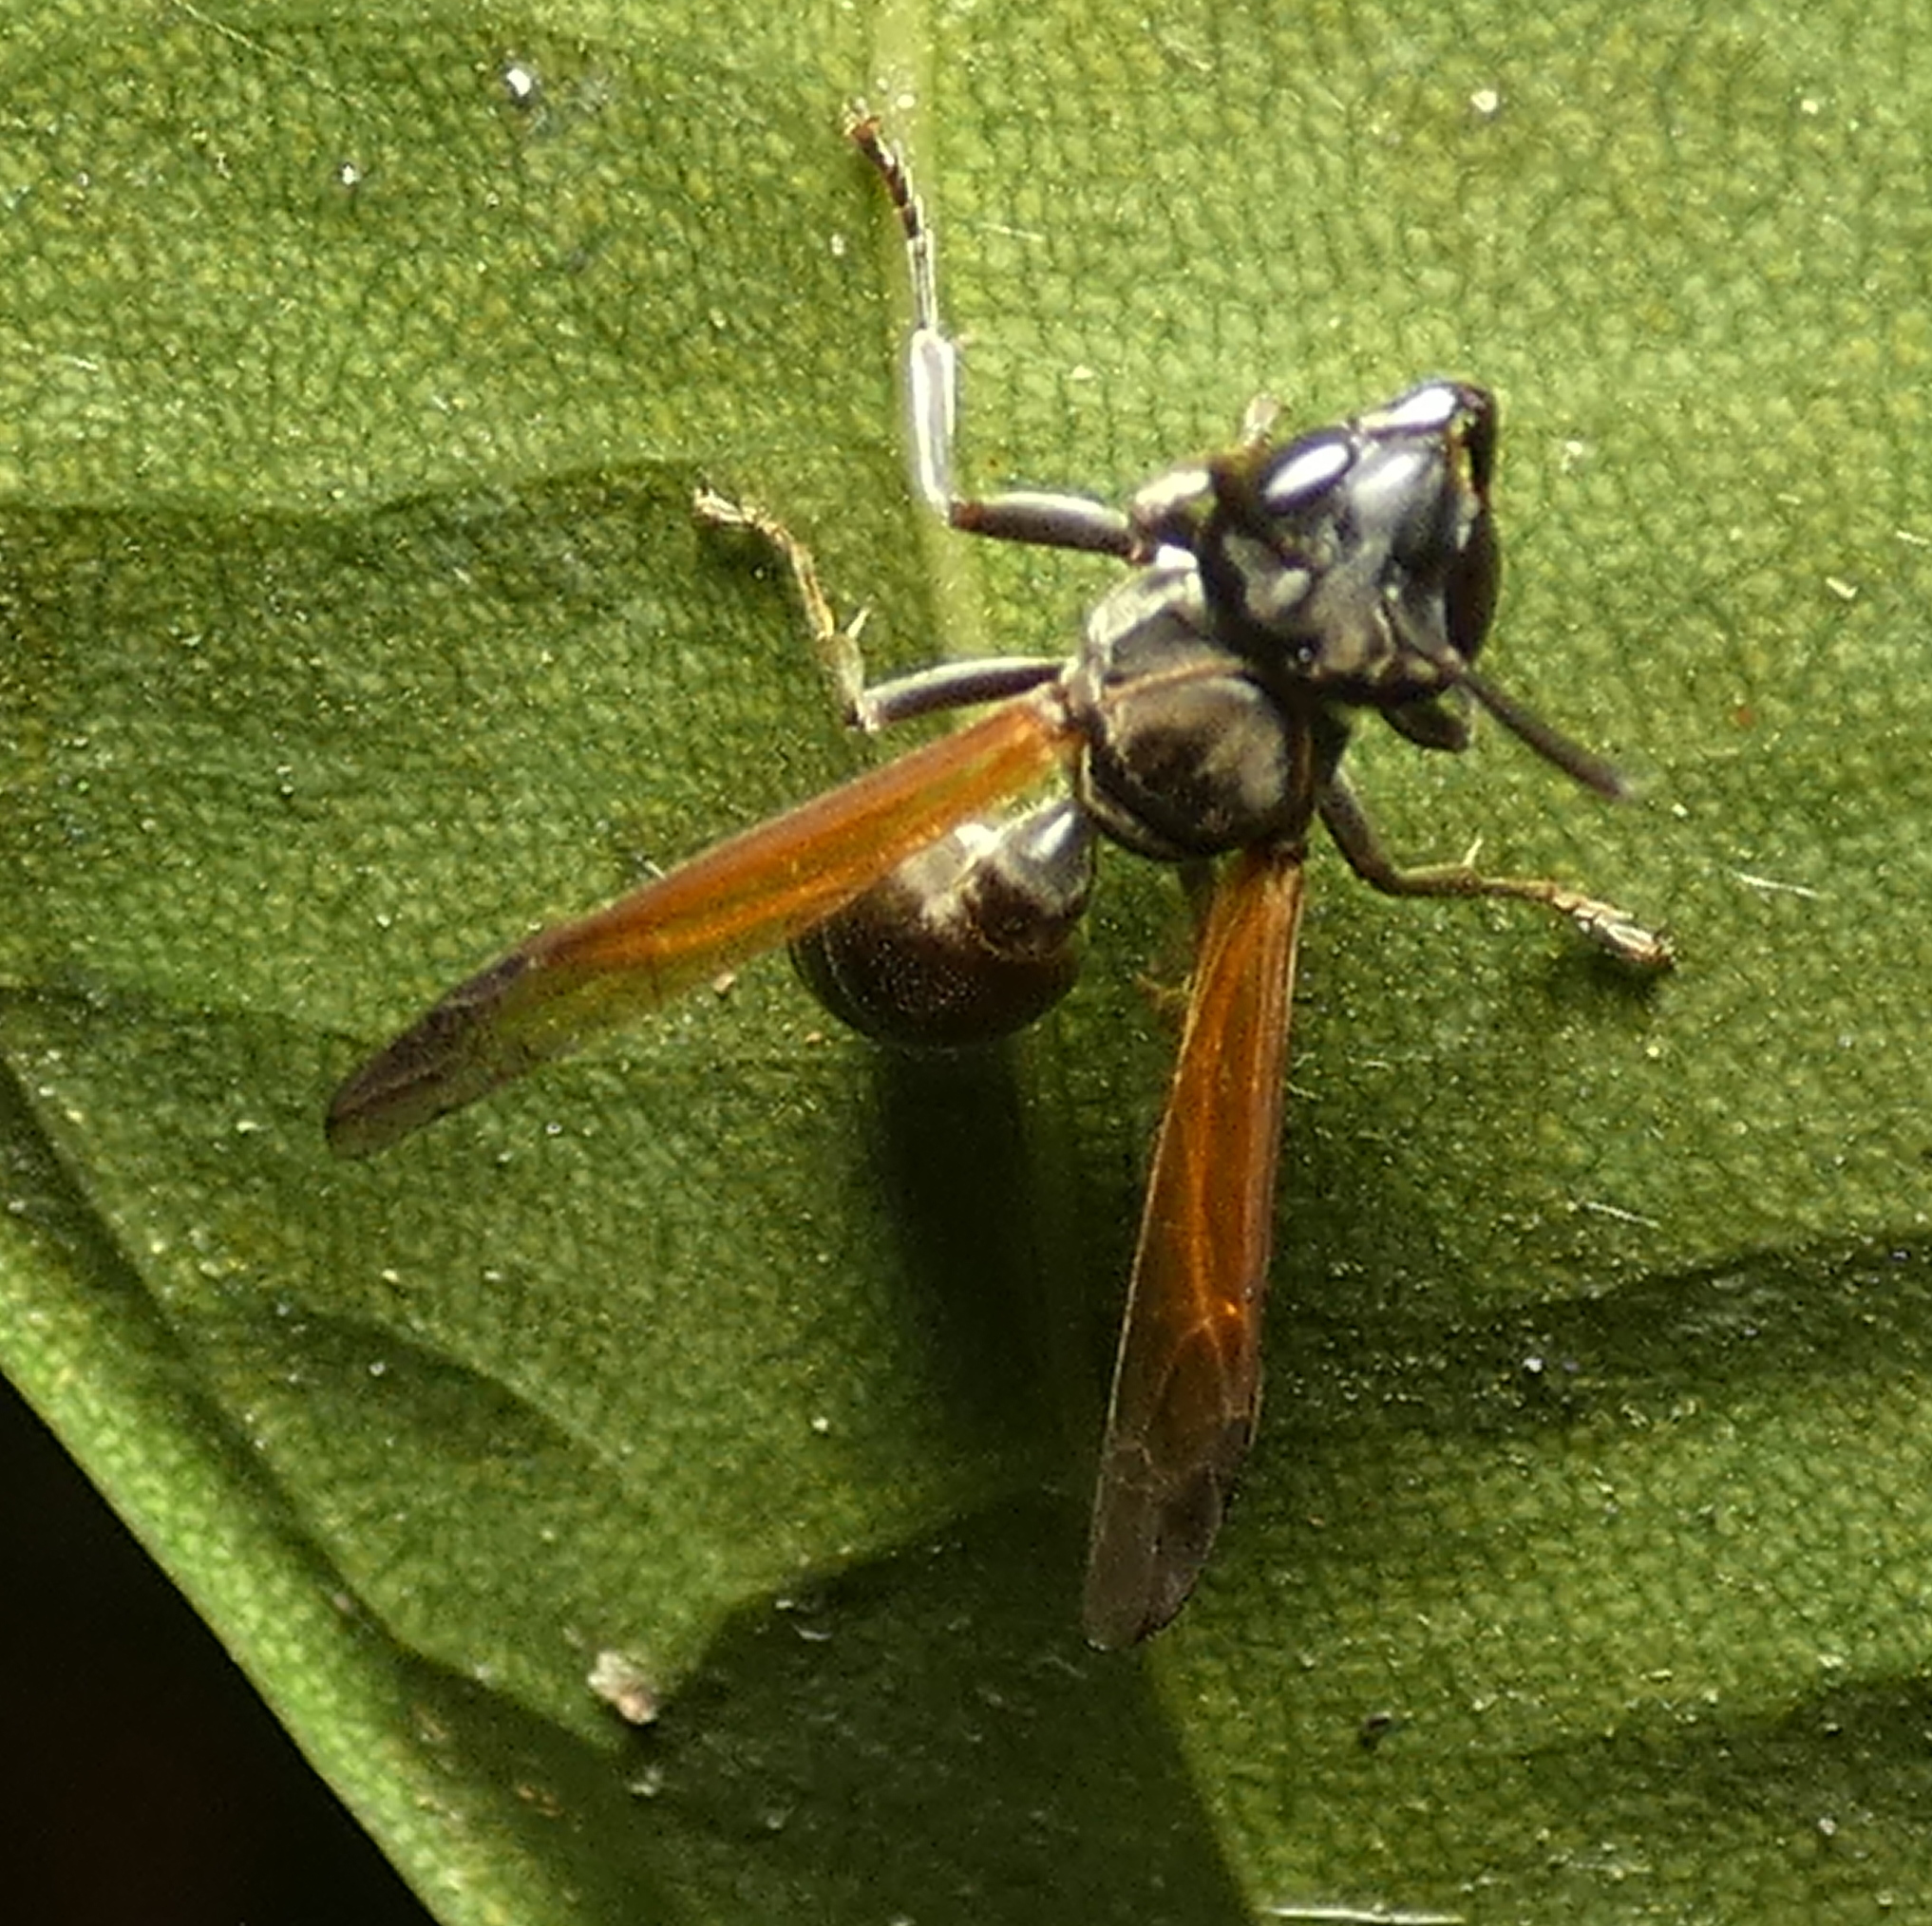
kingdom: Animalia
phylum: Arthropoda
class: Insecta
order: Hymenoptera
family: Eumenidae
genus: Polybia
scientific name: Polybia rejecta
